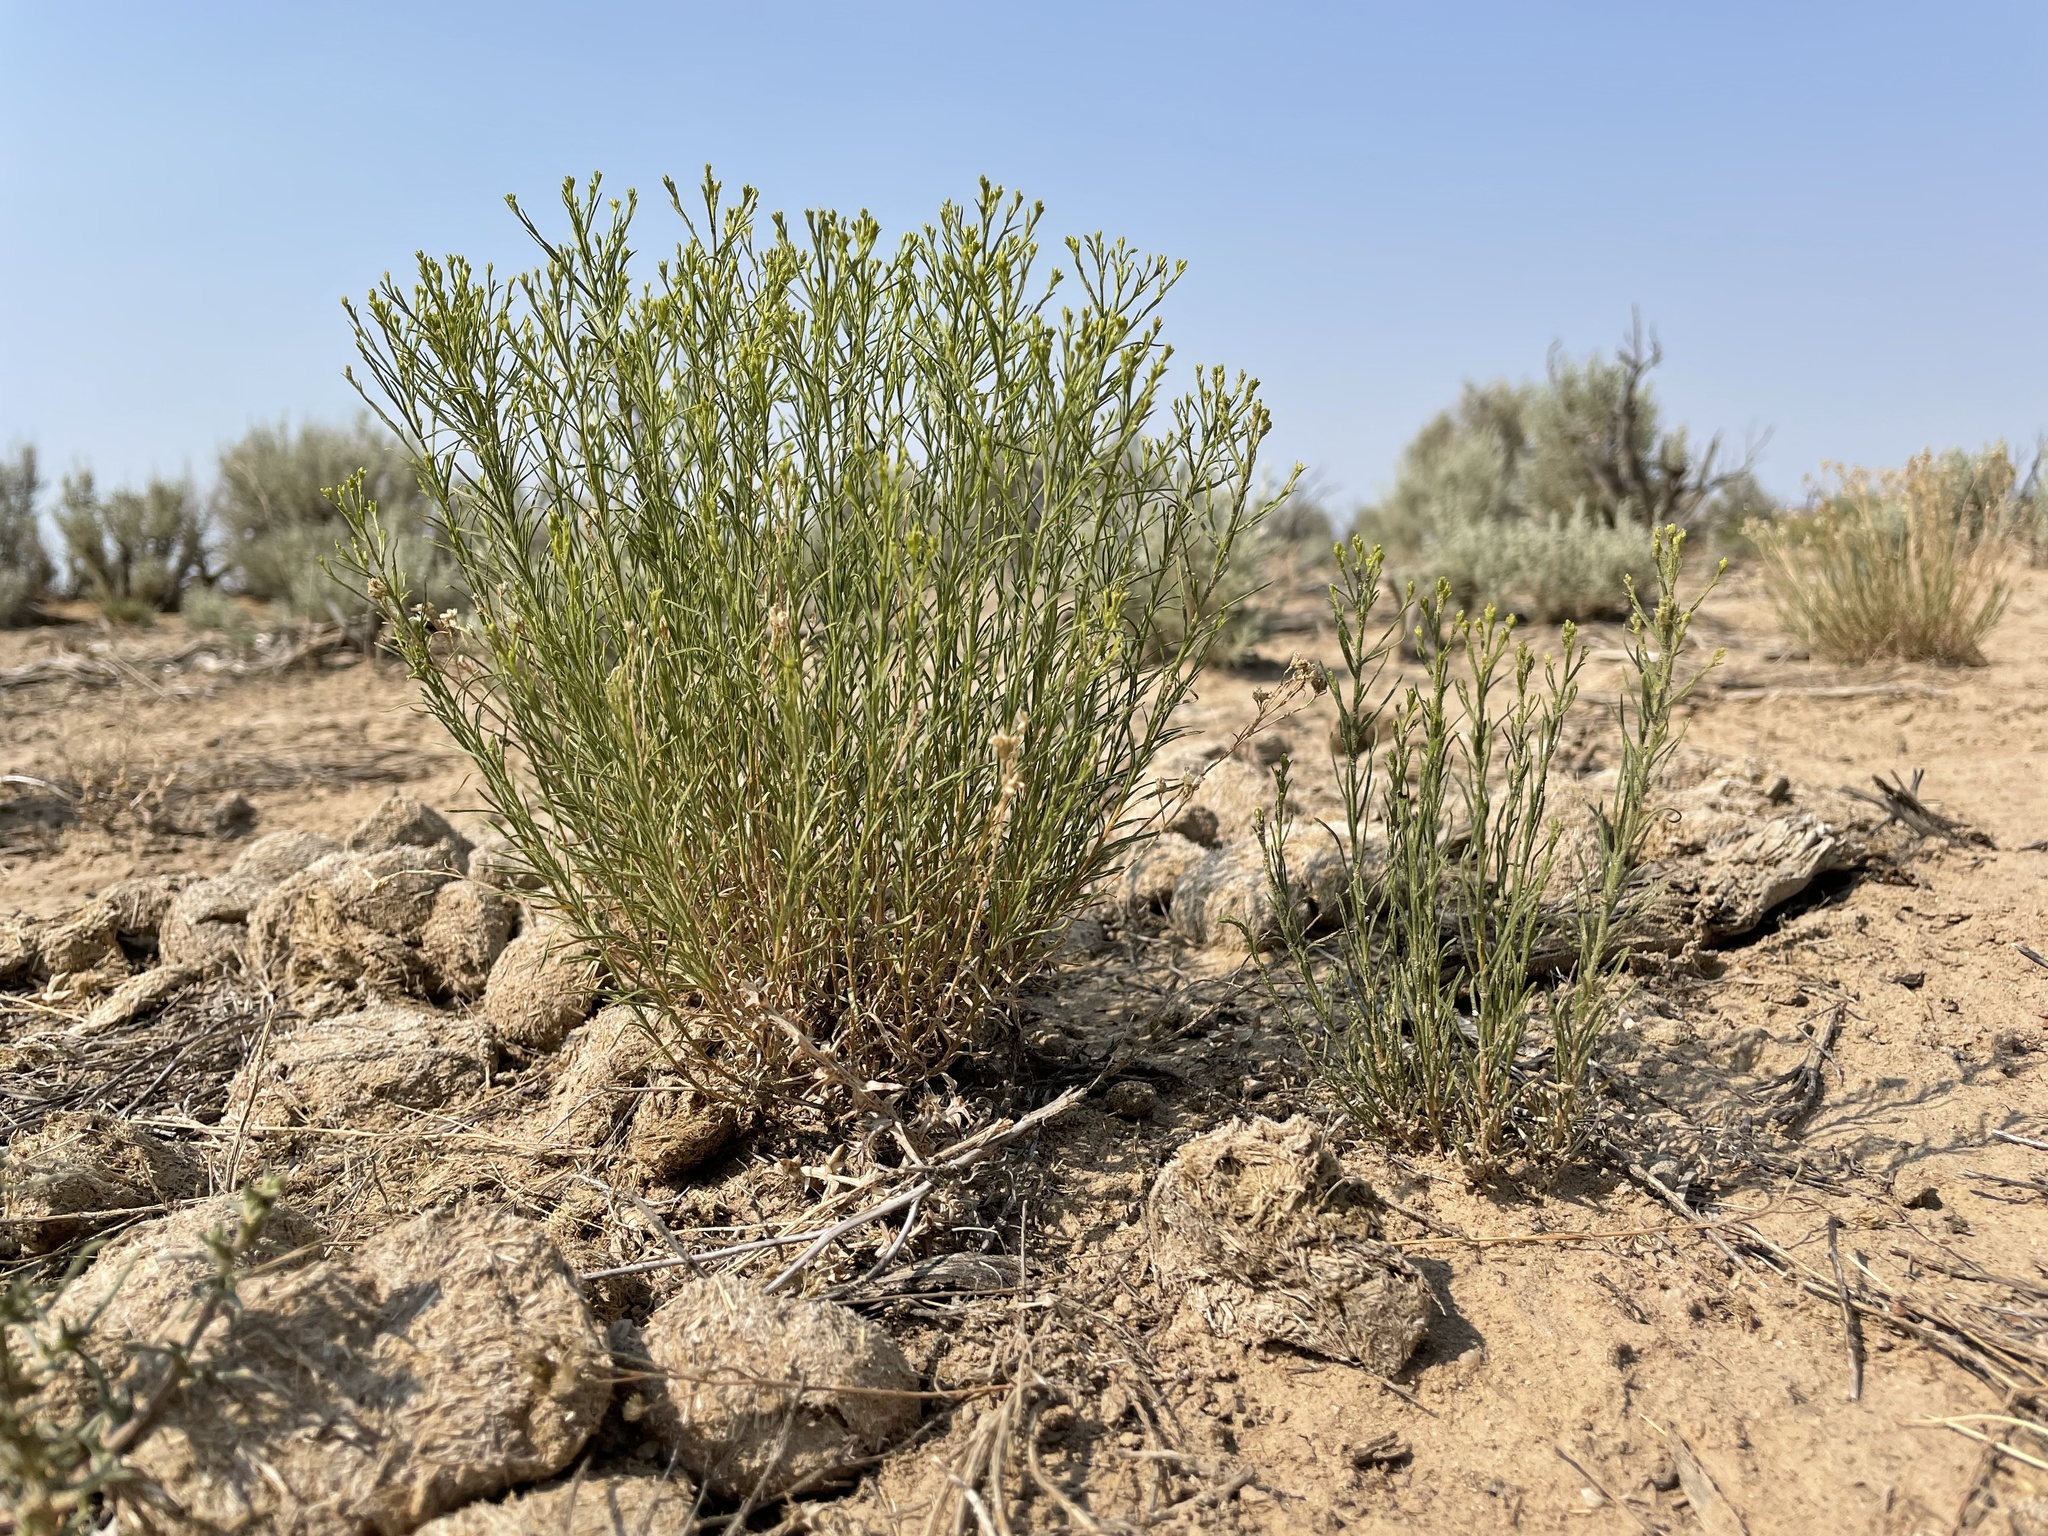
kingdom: Plantae
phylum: Tracheophyta
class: Magnoliopsida
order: Asterales
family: Asteraceae
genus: Gutierrezia
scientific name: Gutierrezia sarothrae
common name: Broom snakeweed
